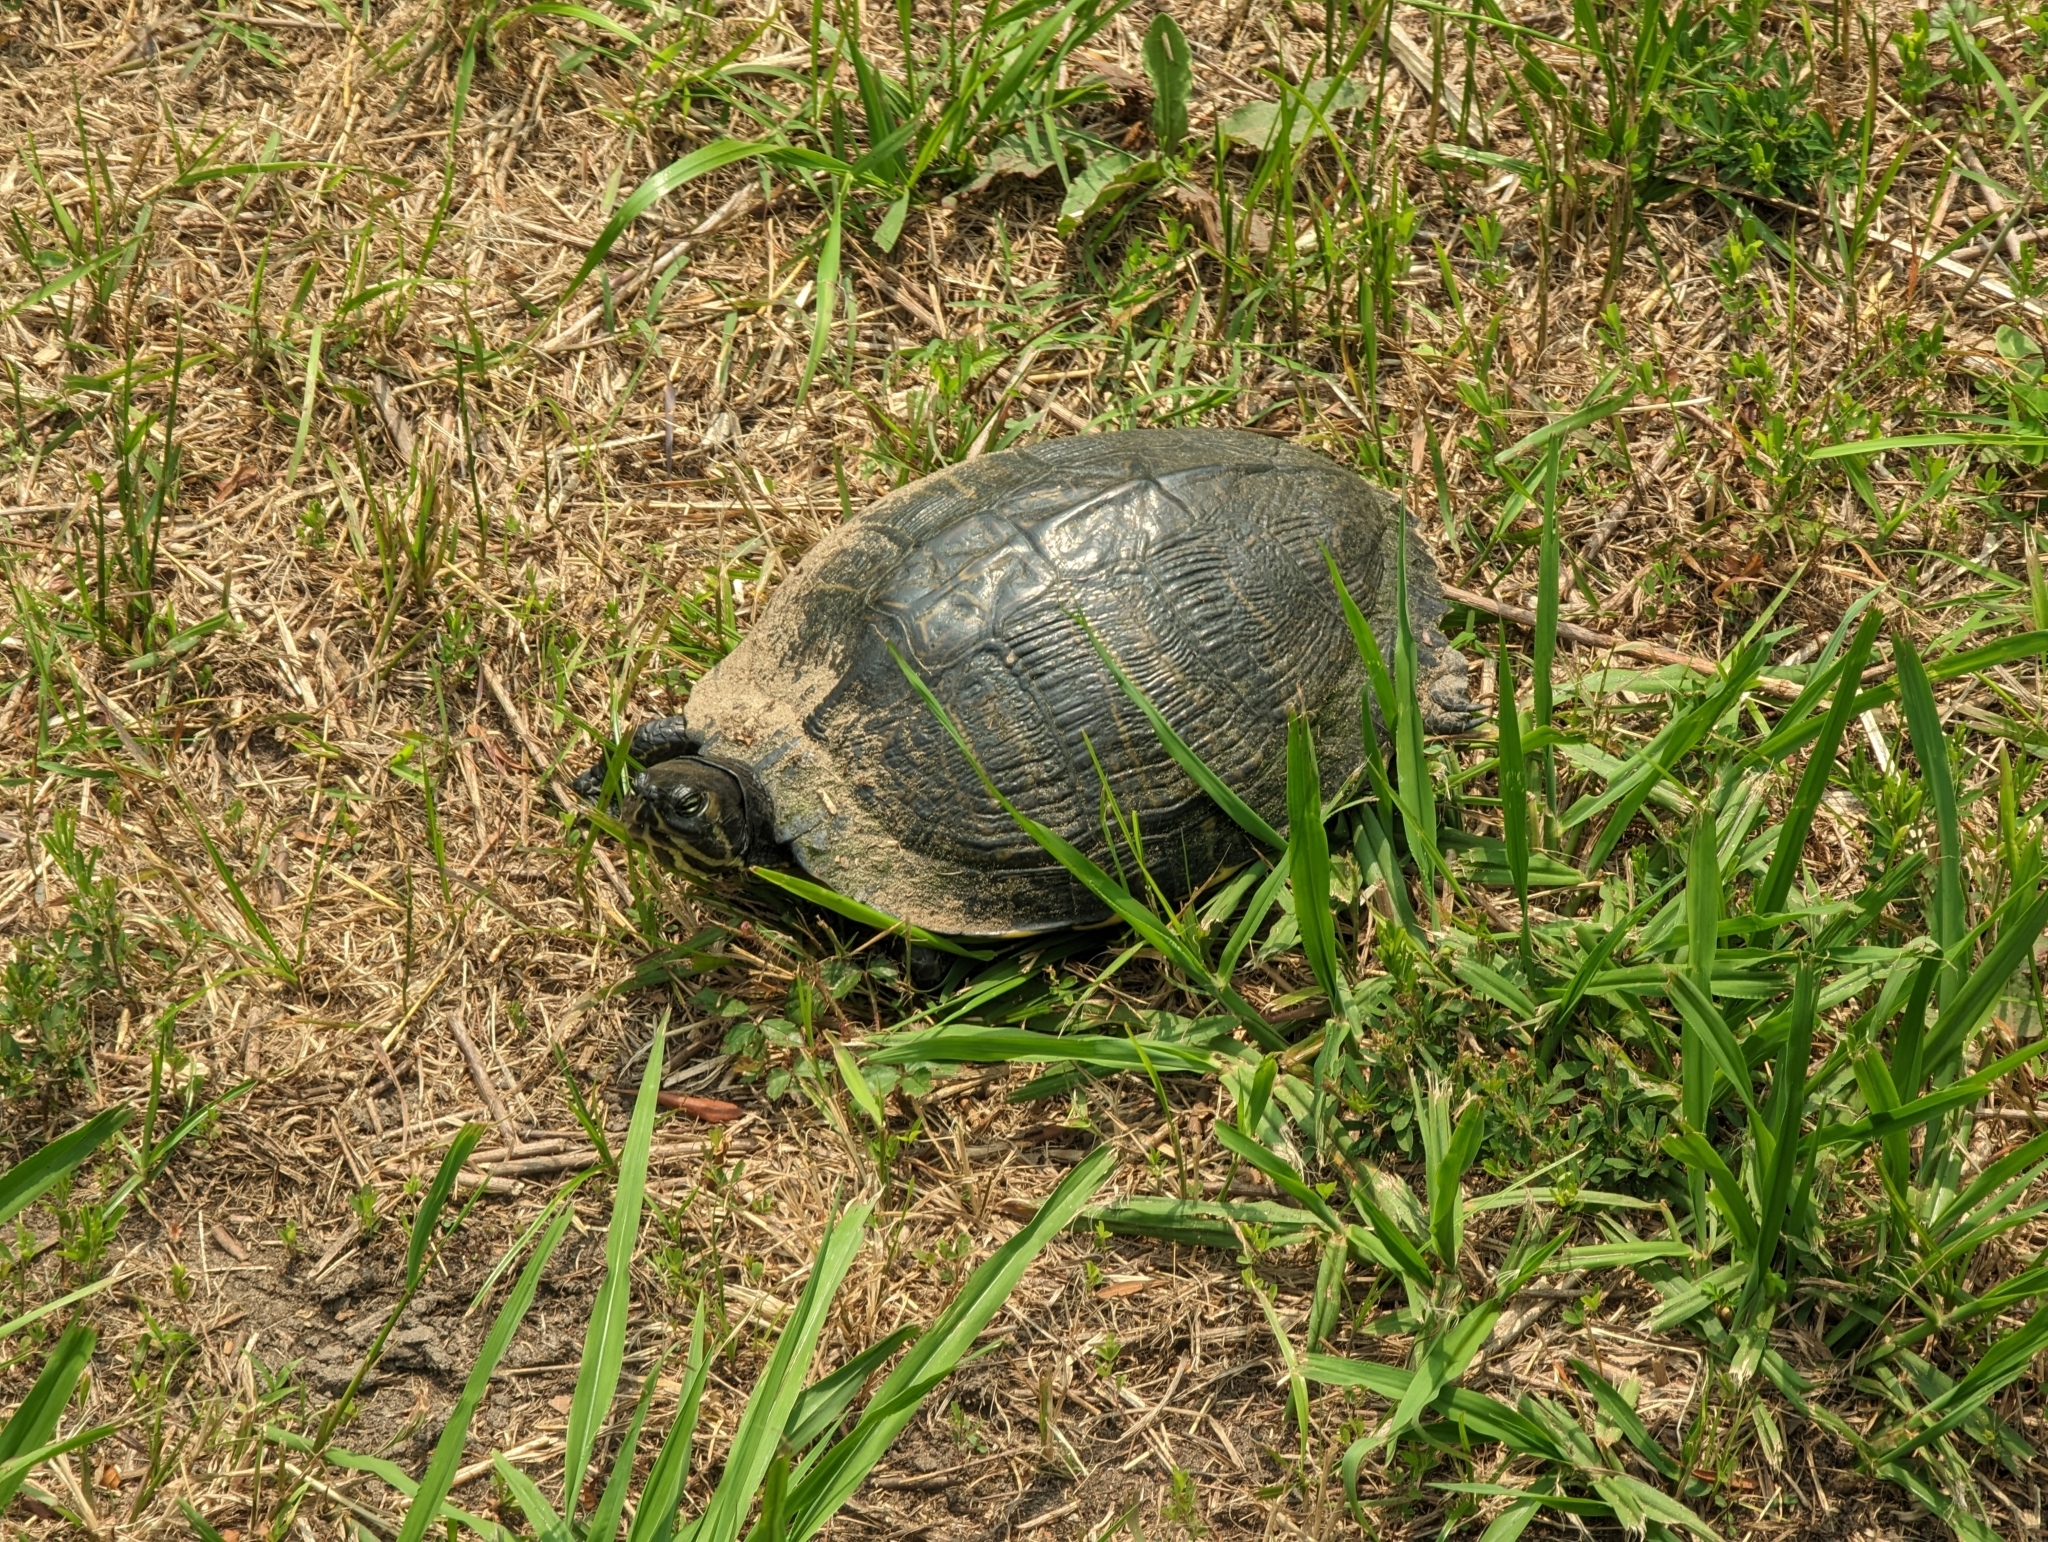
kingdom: Animalia
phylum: Chordata
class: Testudines
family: Emydidae
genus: Trachemys
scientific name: Trachemys scripta
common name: Slider
